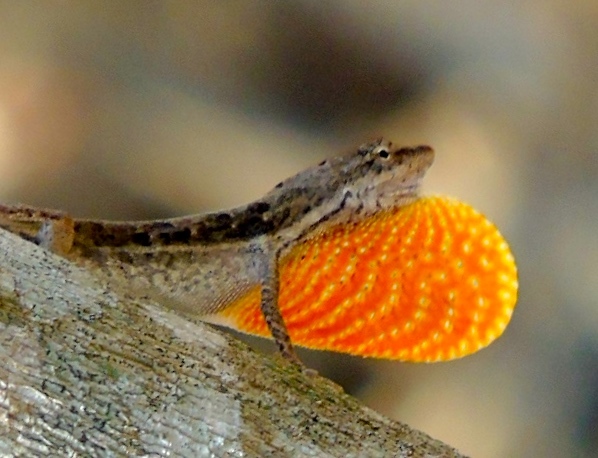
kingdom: Animalia
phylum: Chordata
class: Squamata
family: Dactyloidae
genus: Anolis
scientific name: Anolis nebulosus
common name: Clouded anole
